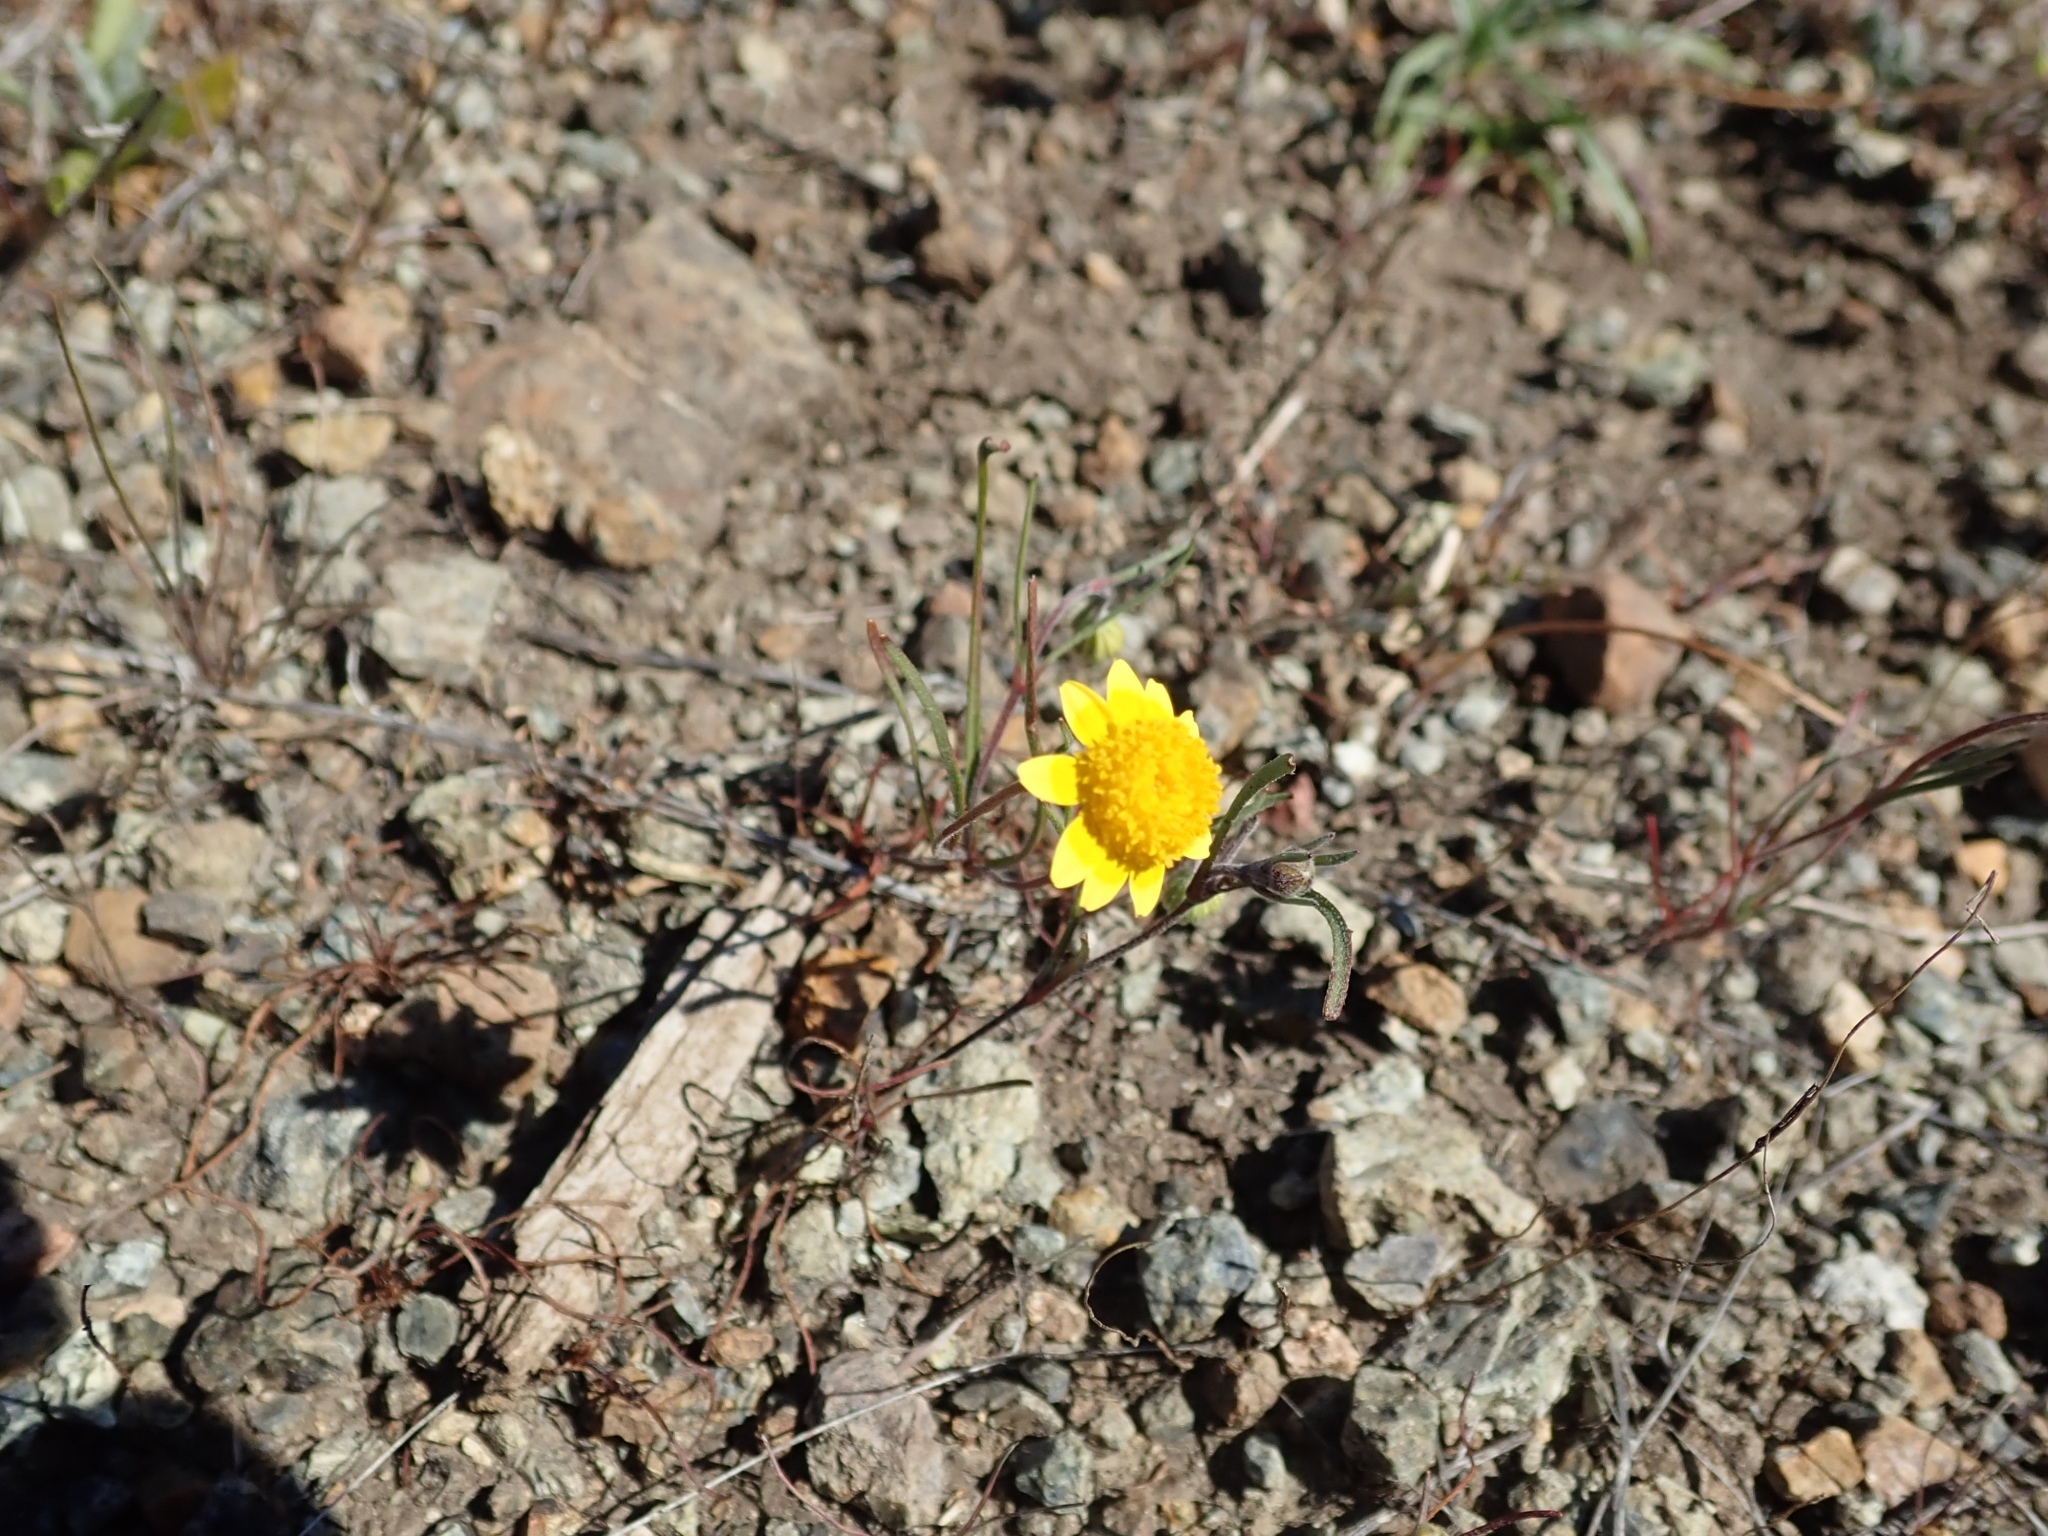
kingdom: Plantae
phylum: Tracheophyta
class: Magnoliopsida
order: Asterales
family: Asteraceae
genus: Lasthenia
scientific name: Lasthenia gracilis
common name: Common goldfields
